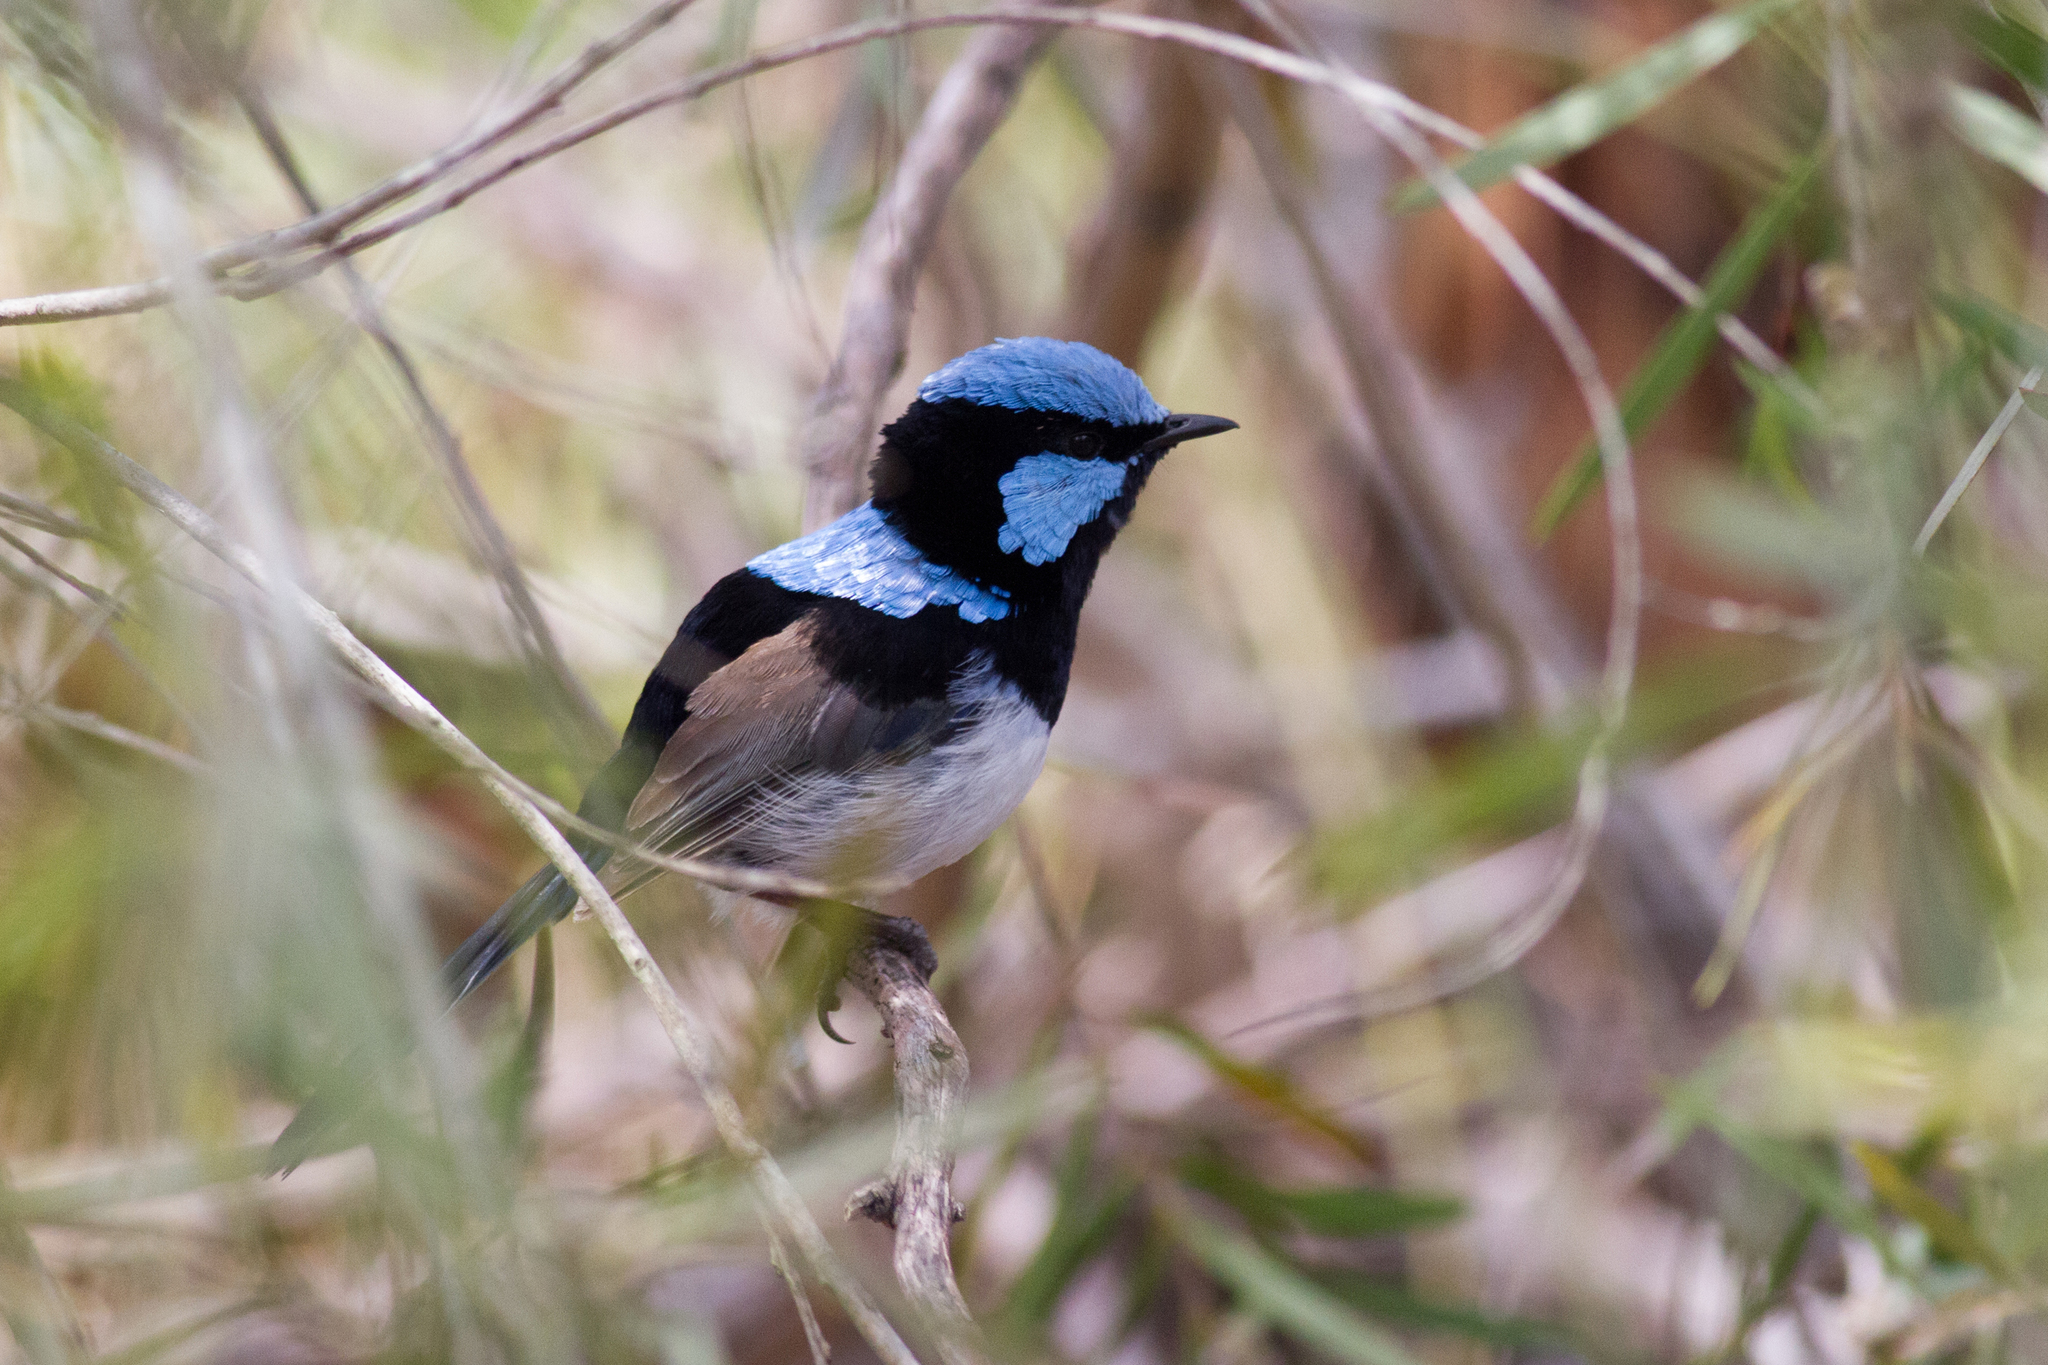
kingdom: Animalia
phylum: Chordata
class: Aves
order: Passeriformes
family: Maluridae
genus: Malurus
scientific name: Malurus cyaneus
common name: Superb fairywren
